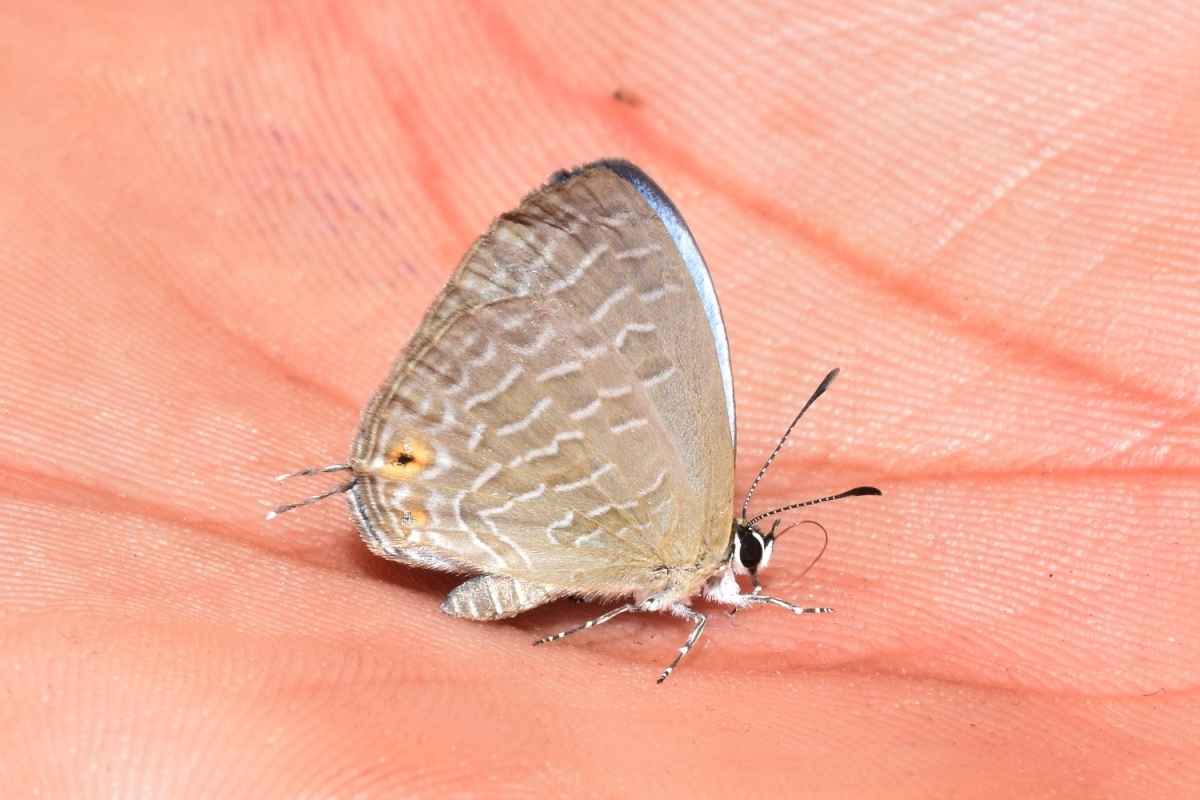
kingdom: Animalia
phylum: Arthropoda
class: Insecta
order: Lepidoptera
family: Lycaenidae
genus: Jamides
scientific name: Jamides celeno
